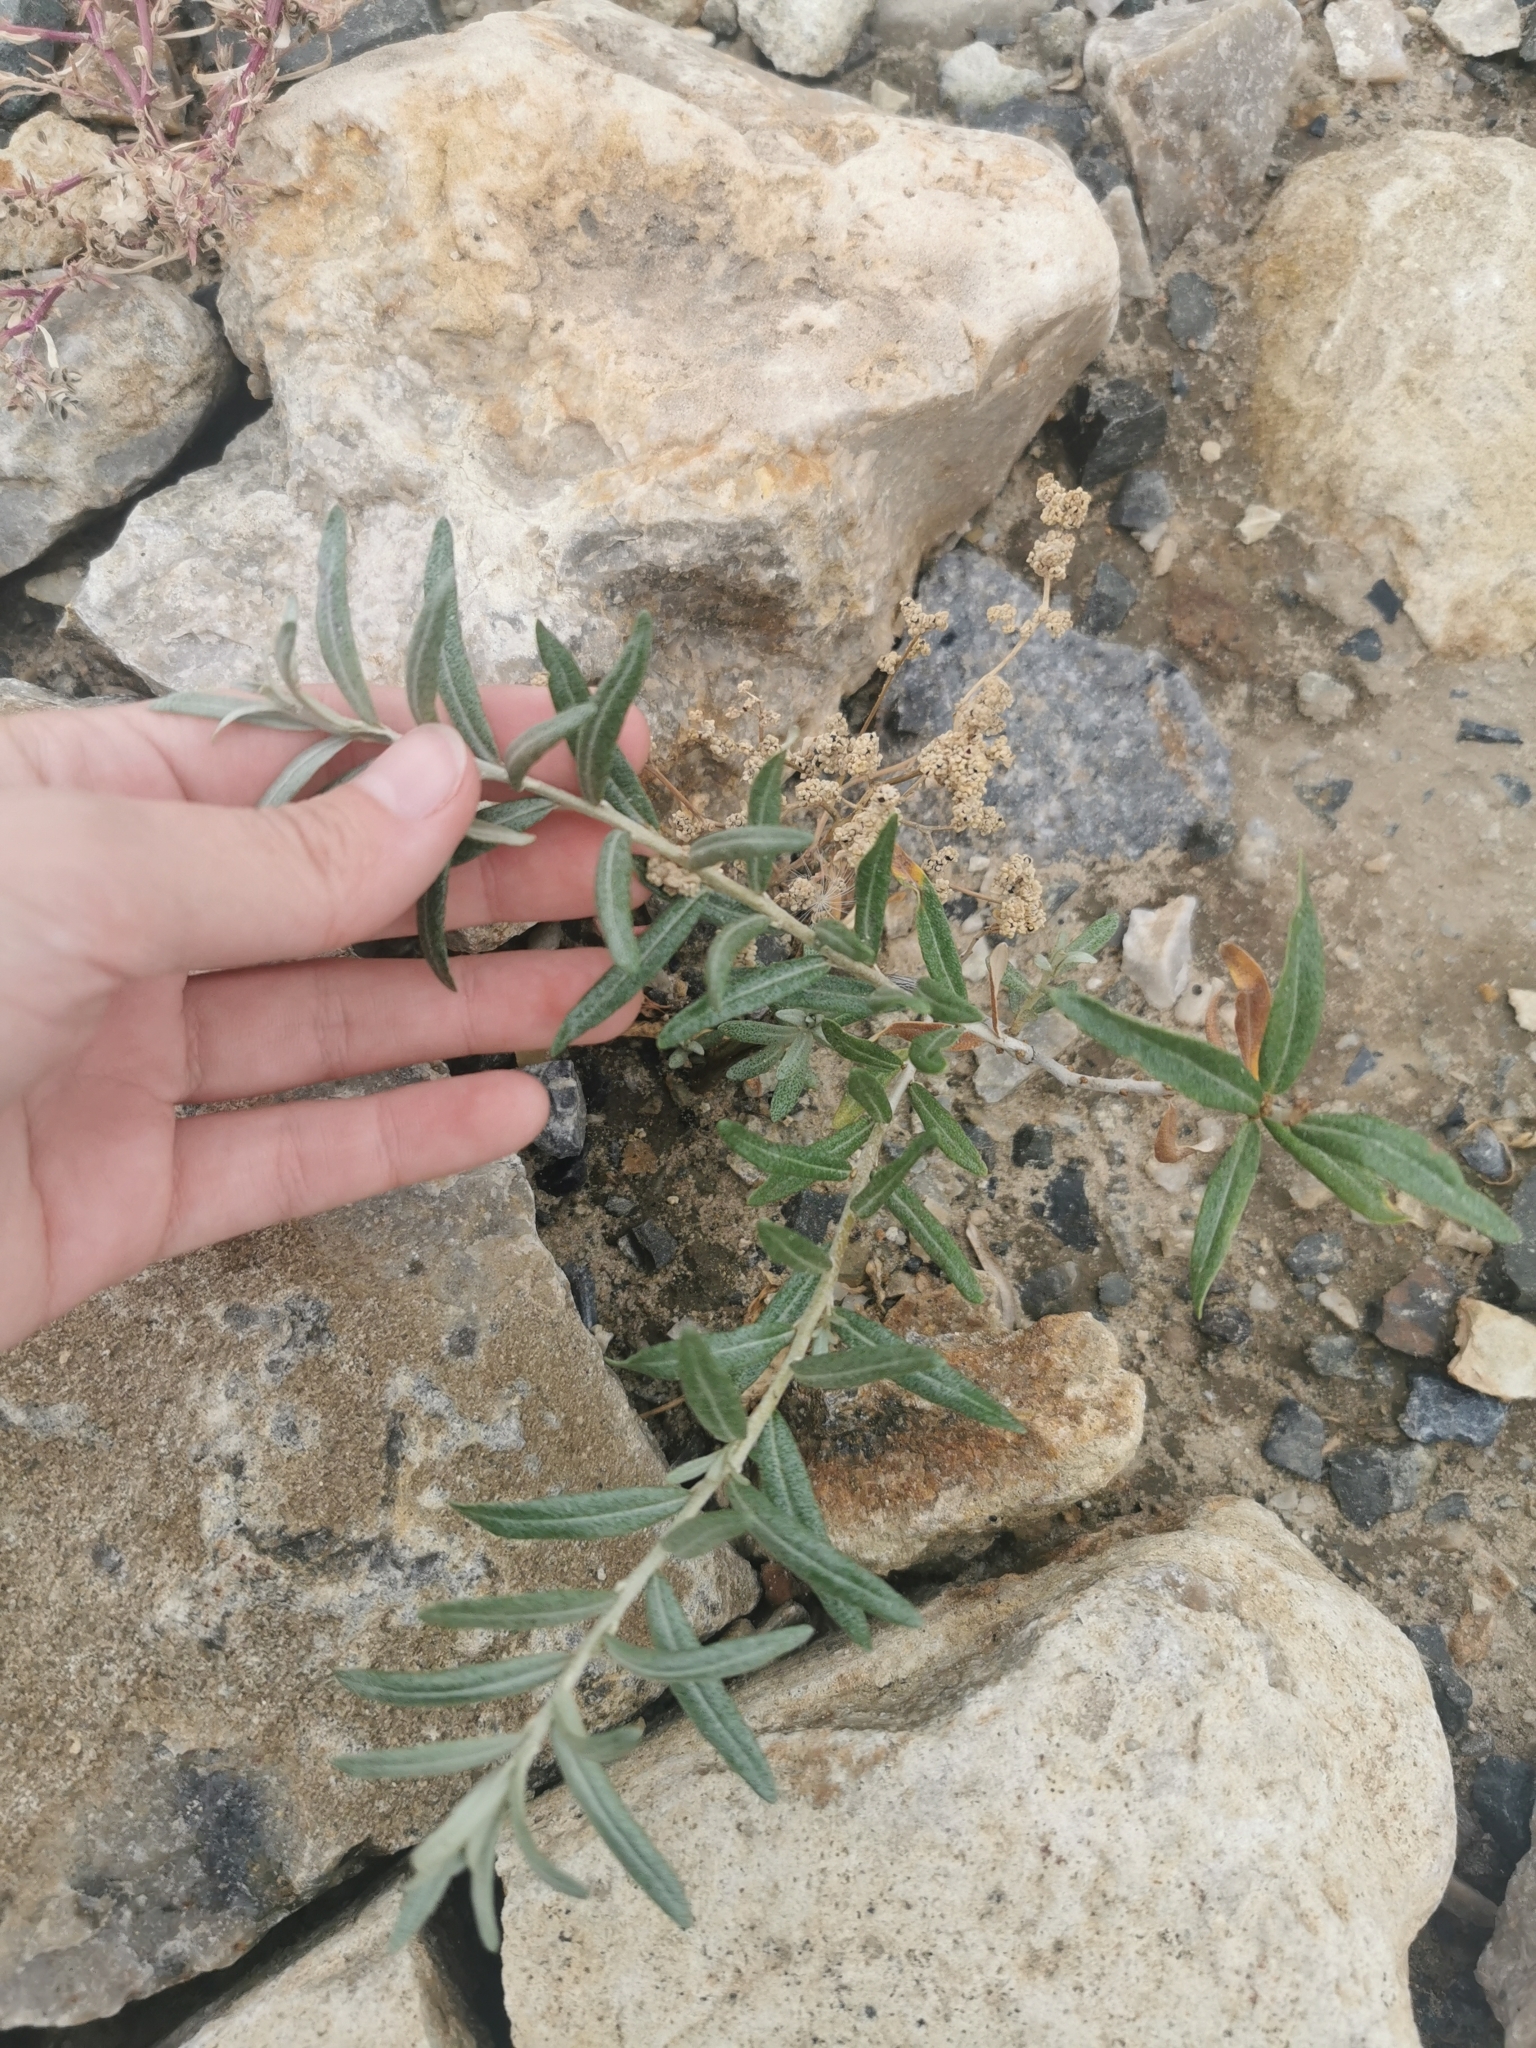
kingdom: Plantae
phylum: Tracheophyta
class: Magnoliopsida
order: Rosales
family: Elaeagnaceae
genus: Hippophae
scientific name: Hippophae rhamnoides
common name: Sea-buckthorn
